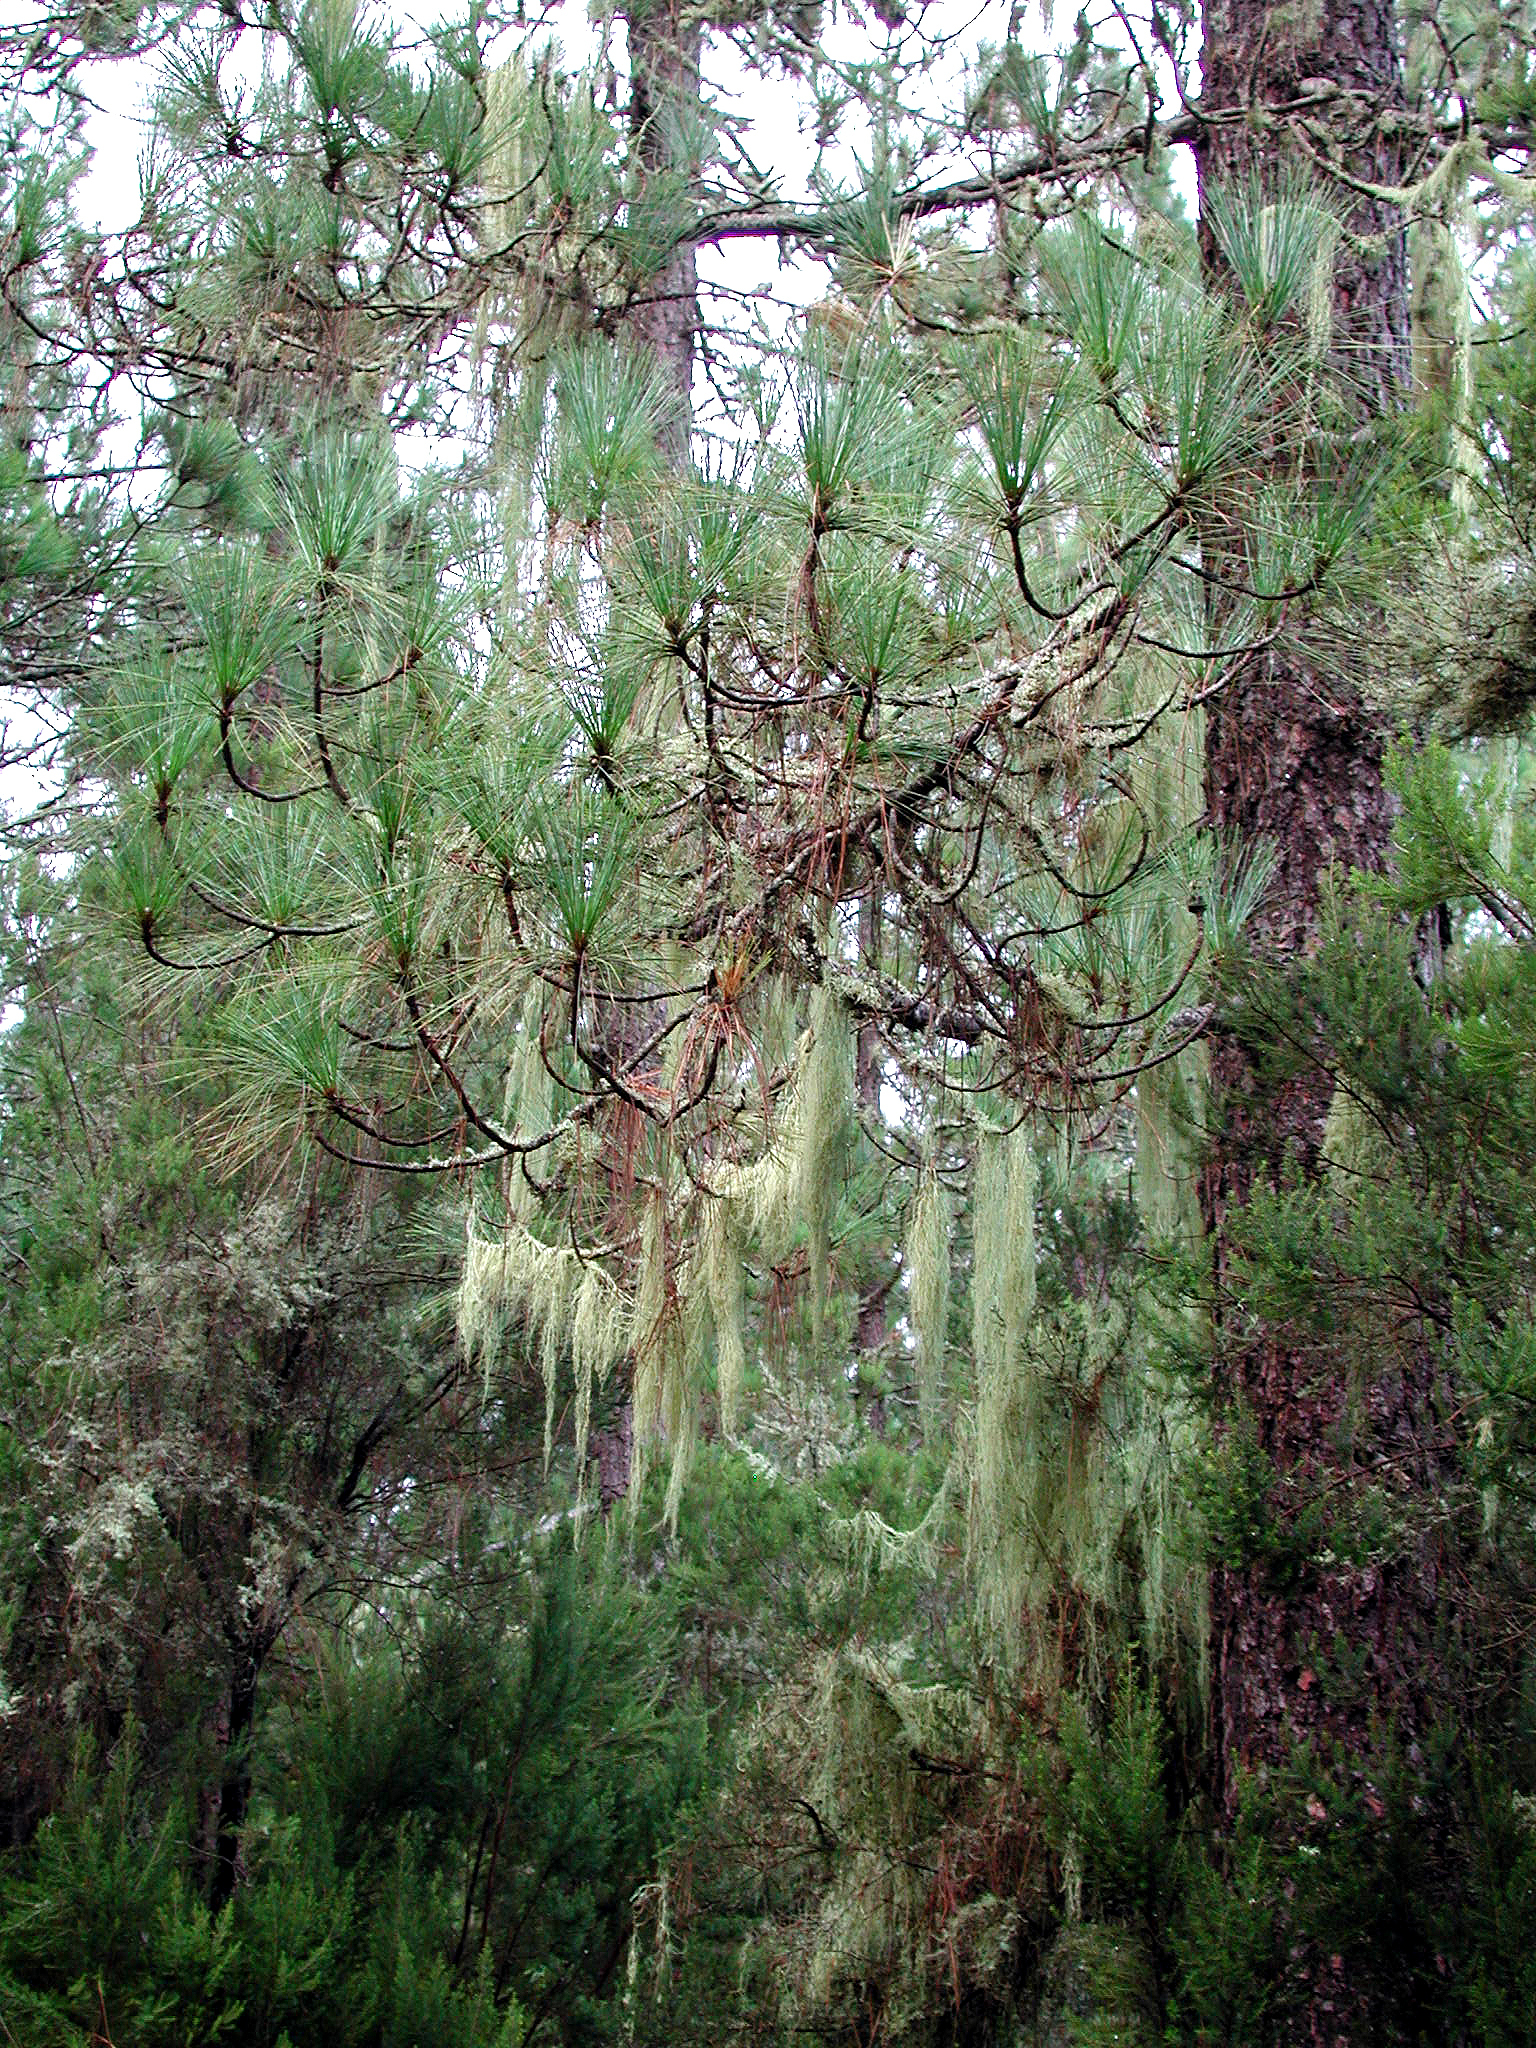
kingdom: Plantae
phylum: Tracheophyta
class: Pinopsida
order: Pinales
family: Pinaceae
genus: Pinus
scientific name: Pinus canariensis
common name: Canary islands pine
